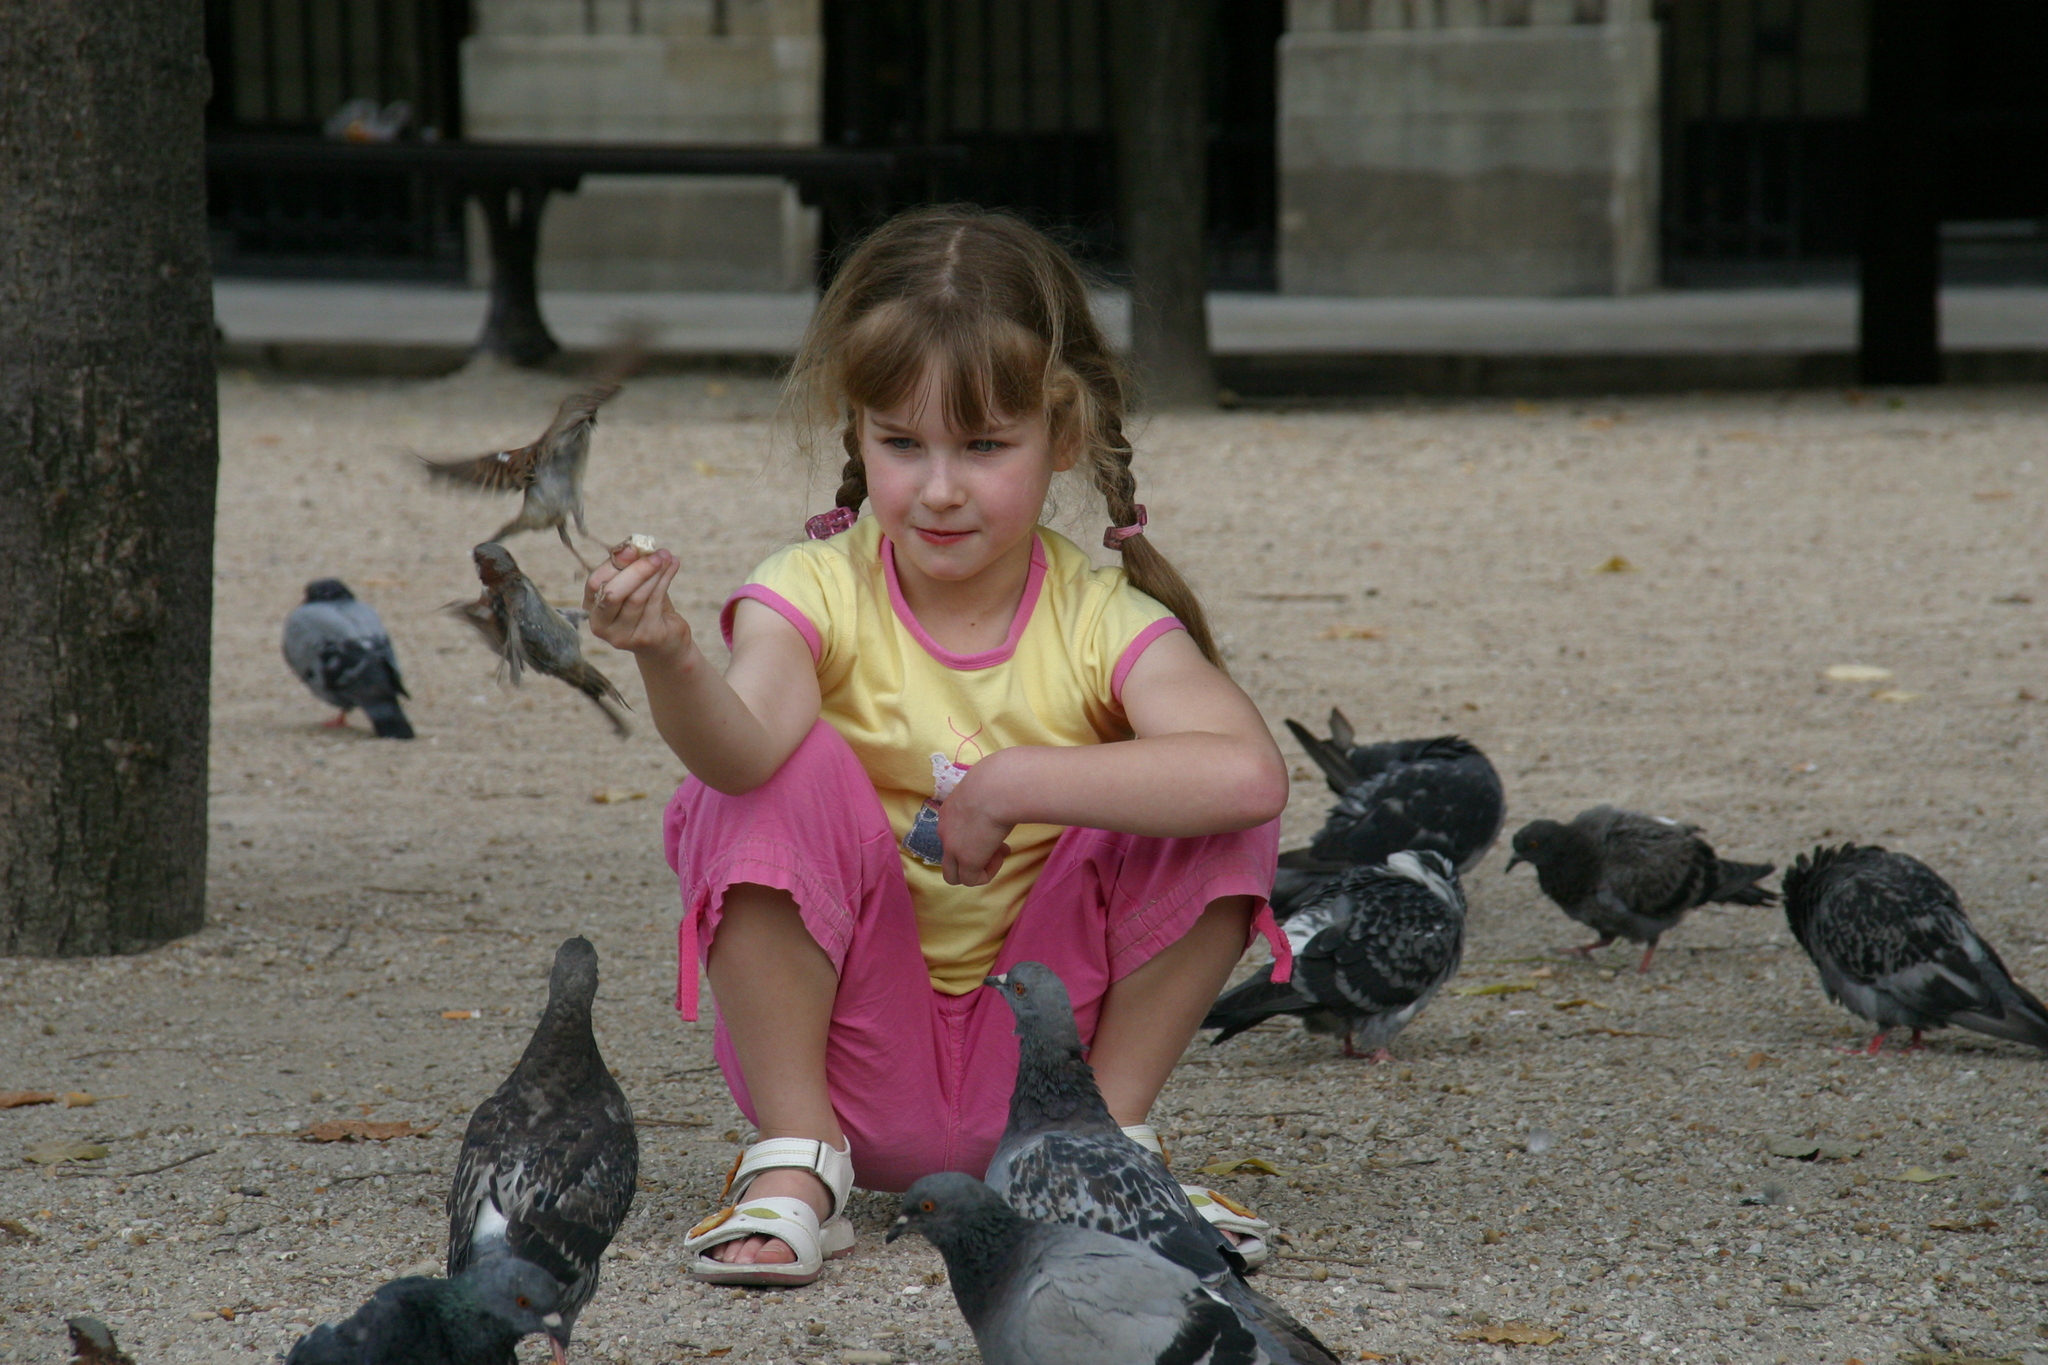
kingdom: Animalia
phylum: Chordata
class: Aves
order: Passeriformes
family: Passeridae
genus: Passer
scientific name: Passer domesticus
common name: House sparrow
